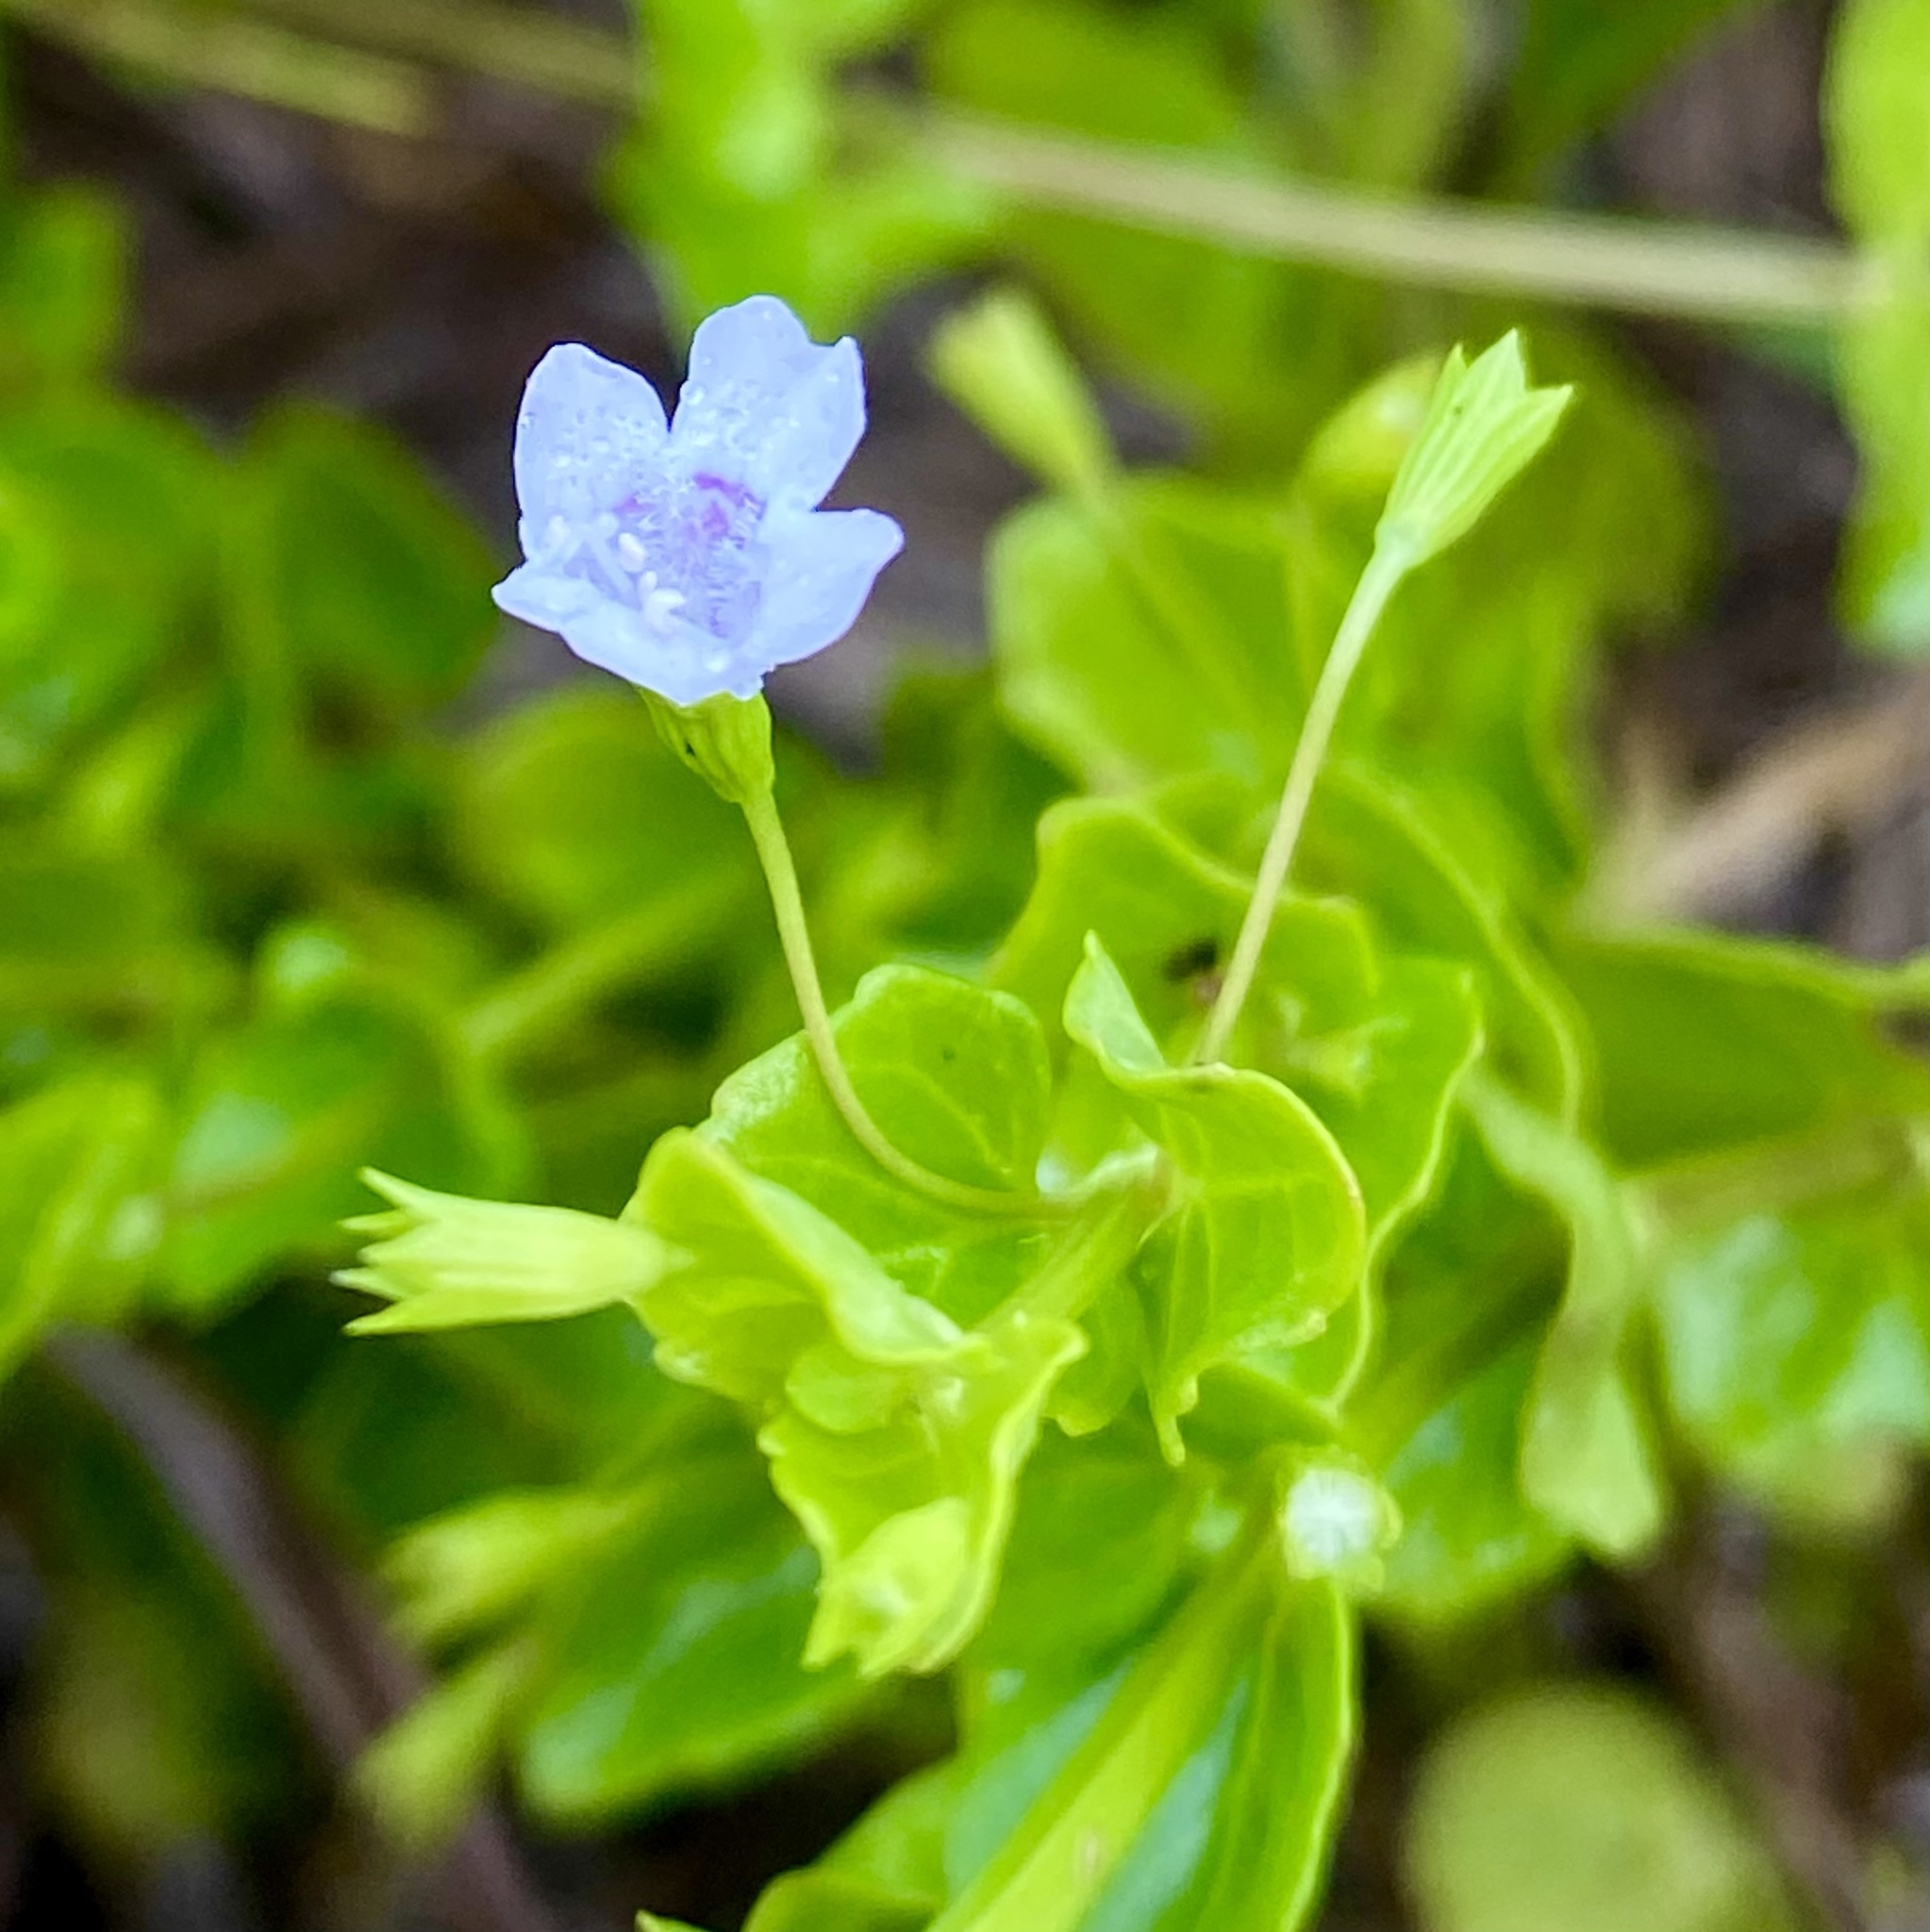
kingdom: Plantae
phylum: Tracheophyta
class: Magnoliopsida
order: Lamiales
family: Lamiaceae
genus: Clinopodium
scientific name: Clinopodium brownei
